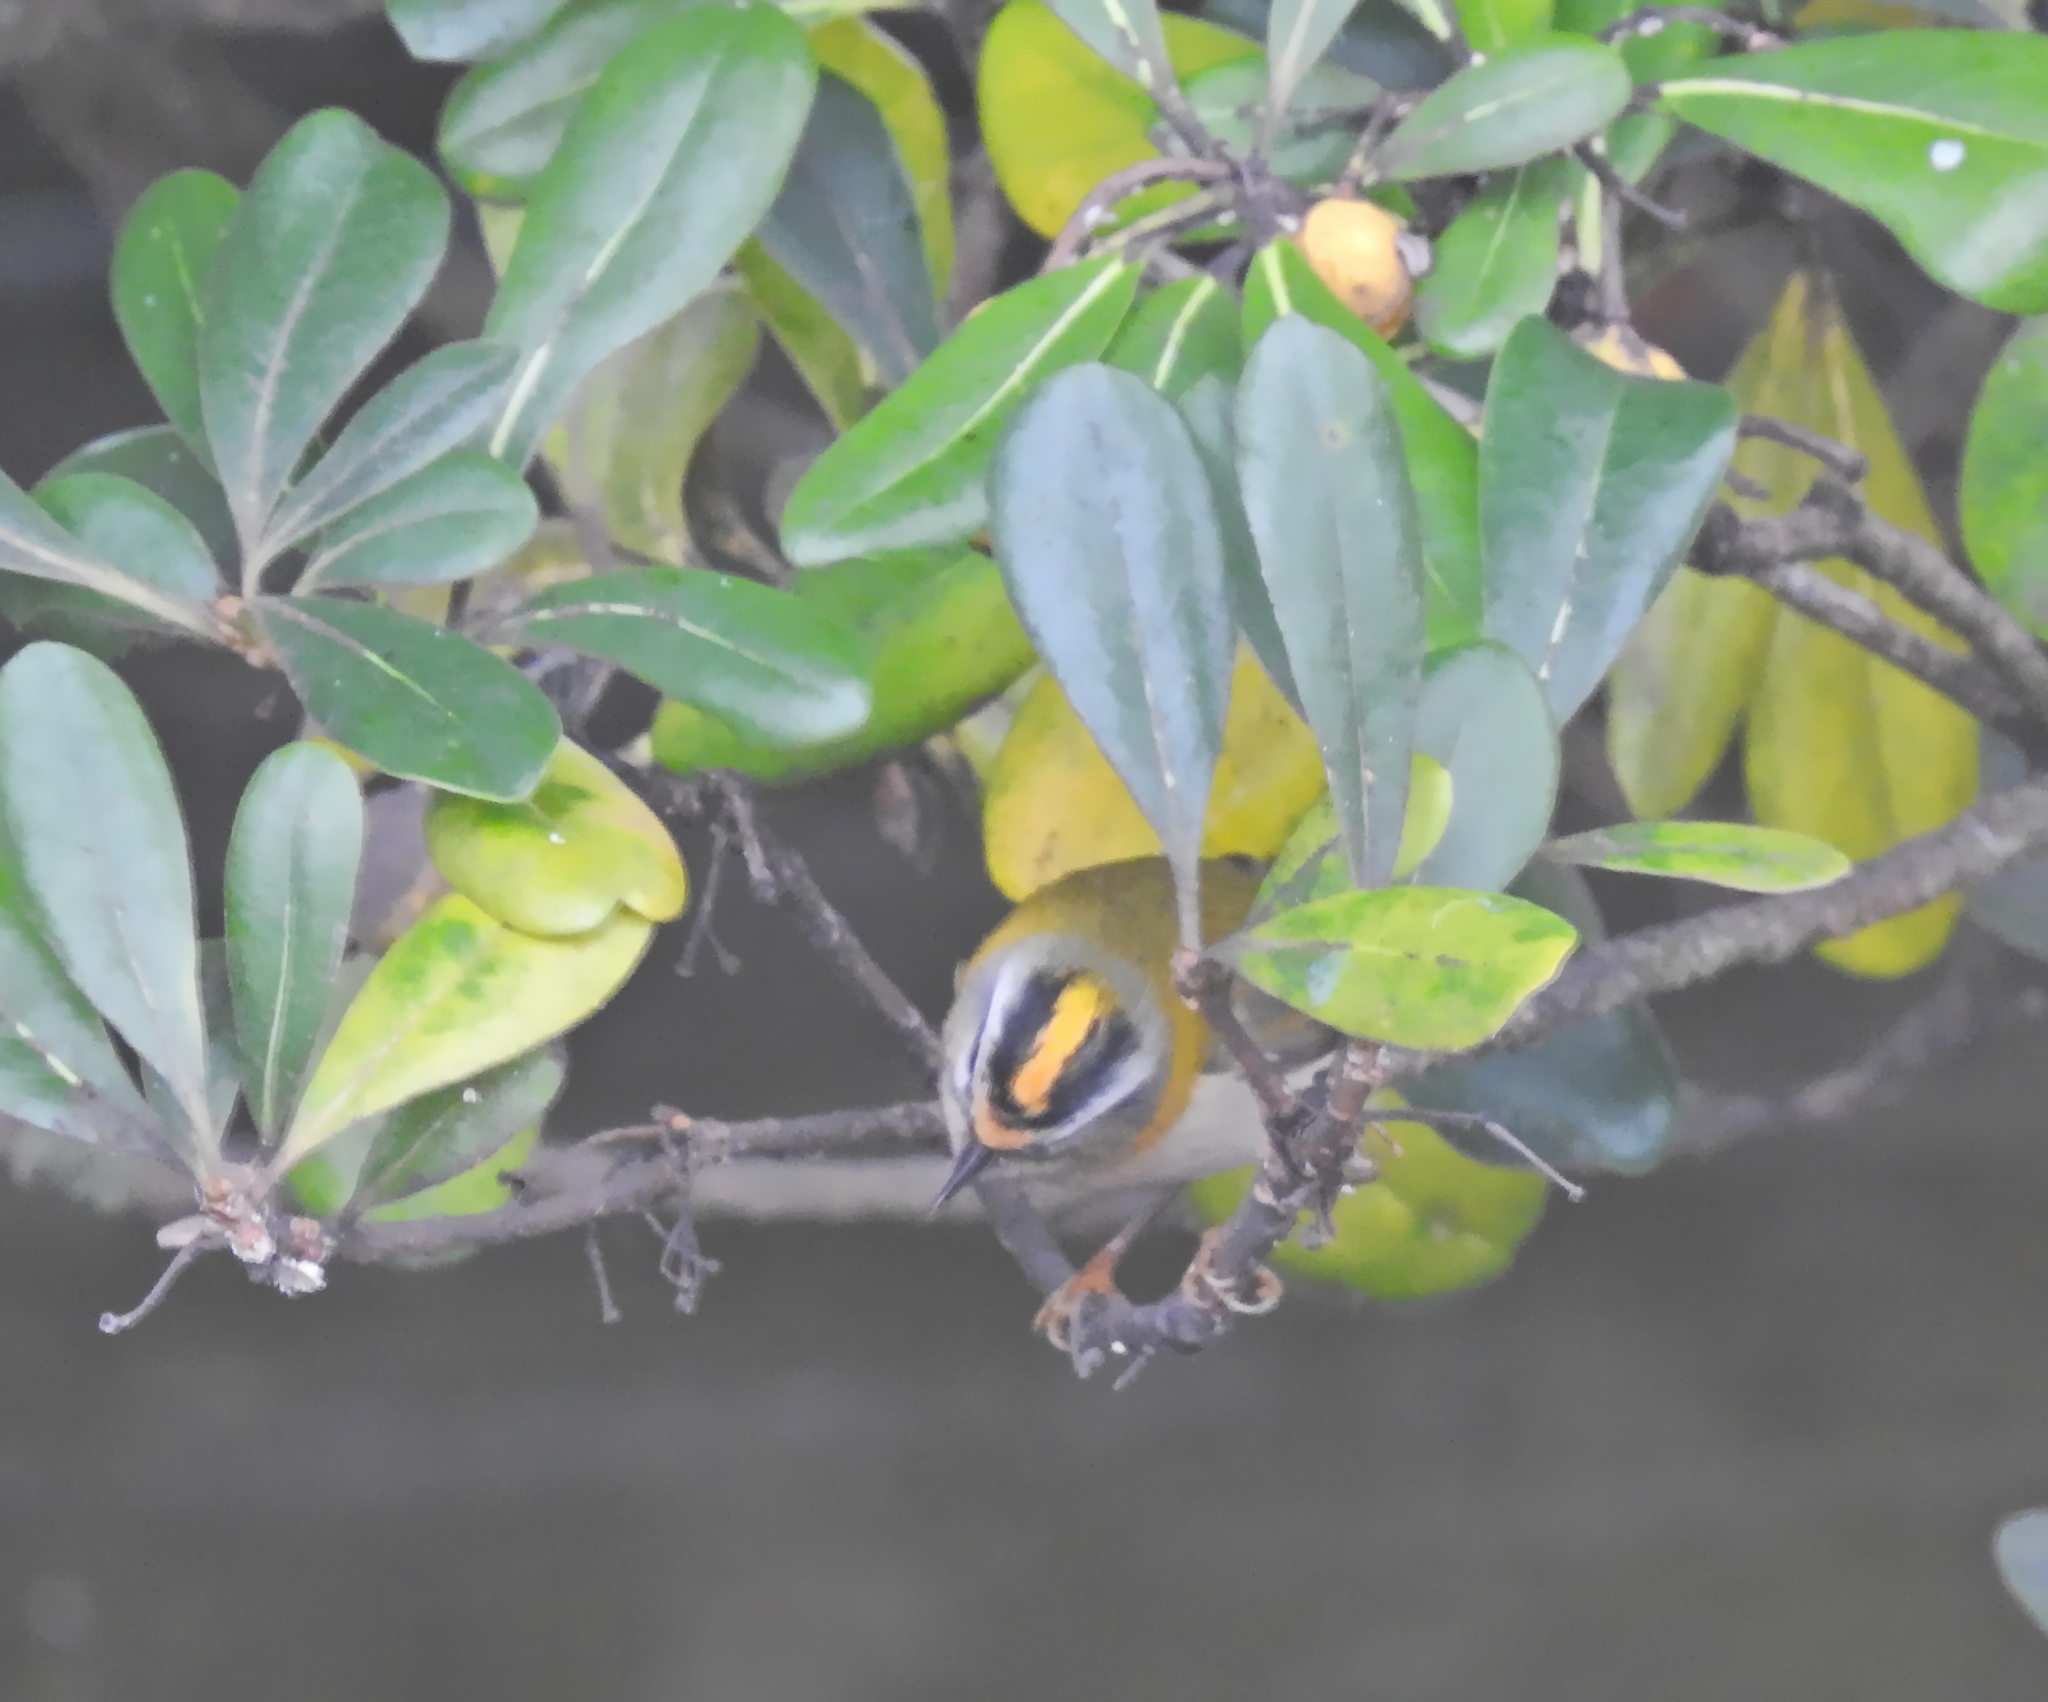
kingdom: Animalia
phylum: Chordata
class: Aves
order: Passeriformes
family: Regulidae
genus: Regulus
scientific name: Regulus ignicapilla
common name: Firecrest
